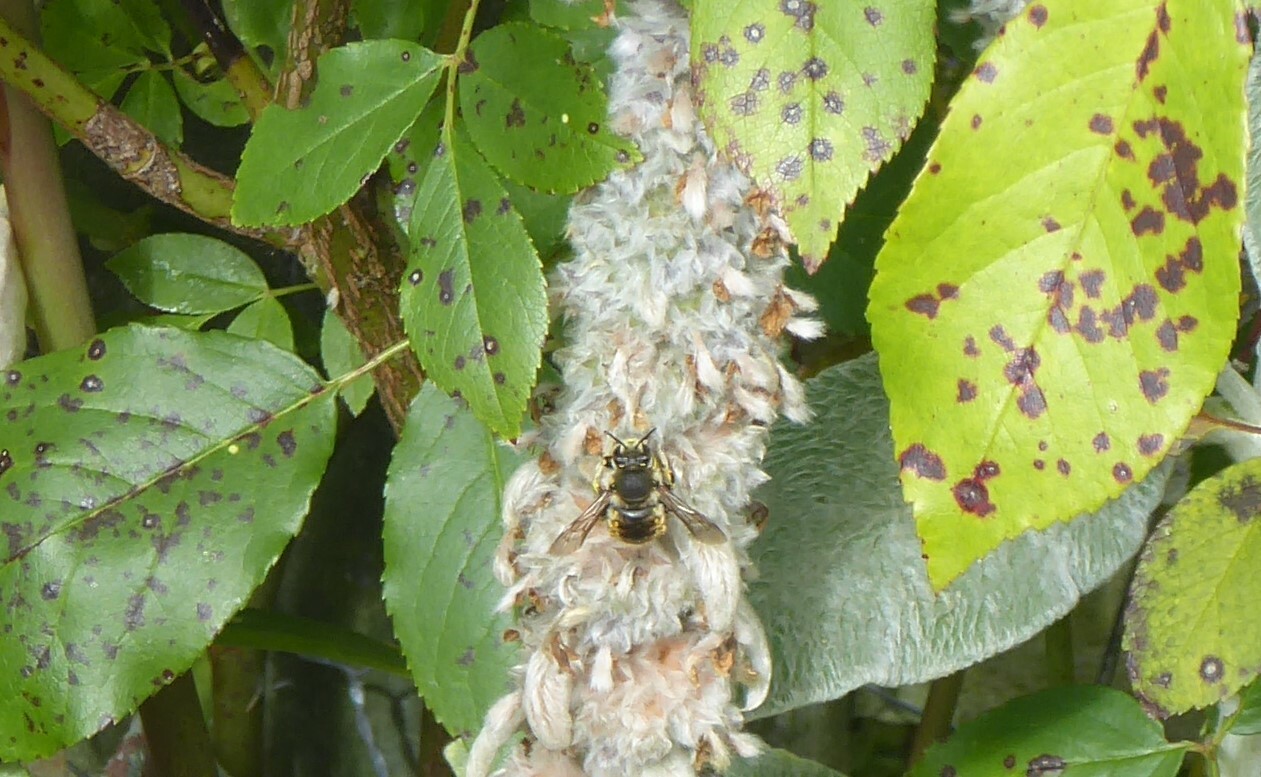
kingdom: Animalia
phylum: Arthropoda
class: Insecta
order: Hymenoptera
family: Megachilidae
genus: Anthidium
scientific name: Anthidium manicatum
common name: Wool carder bee
